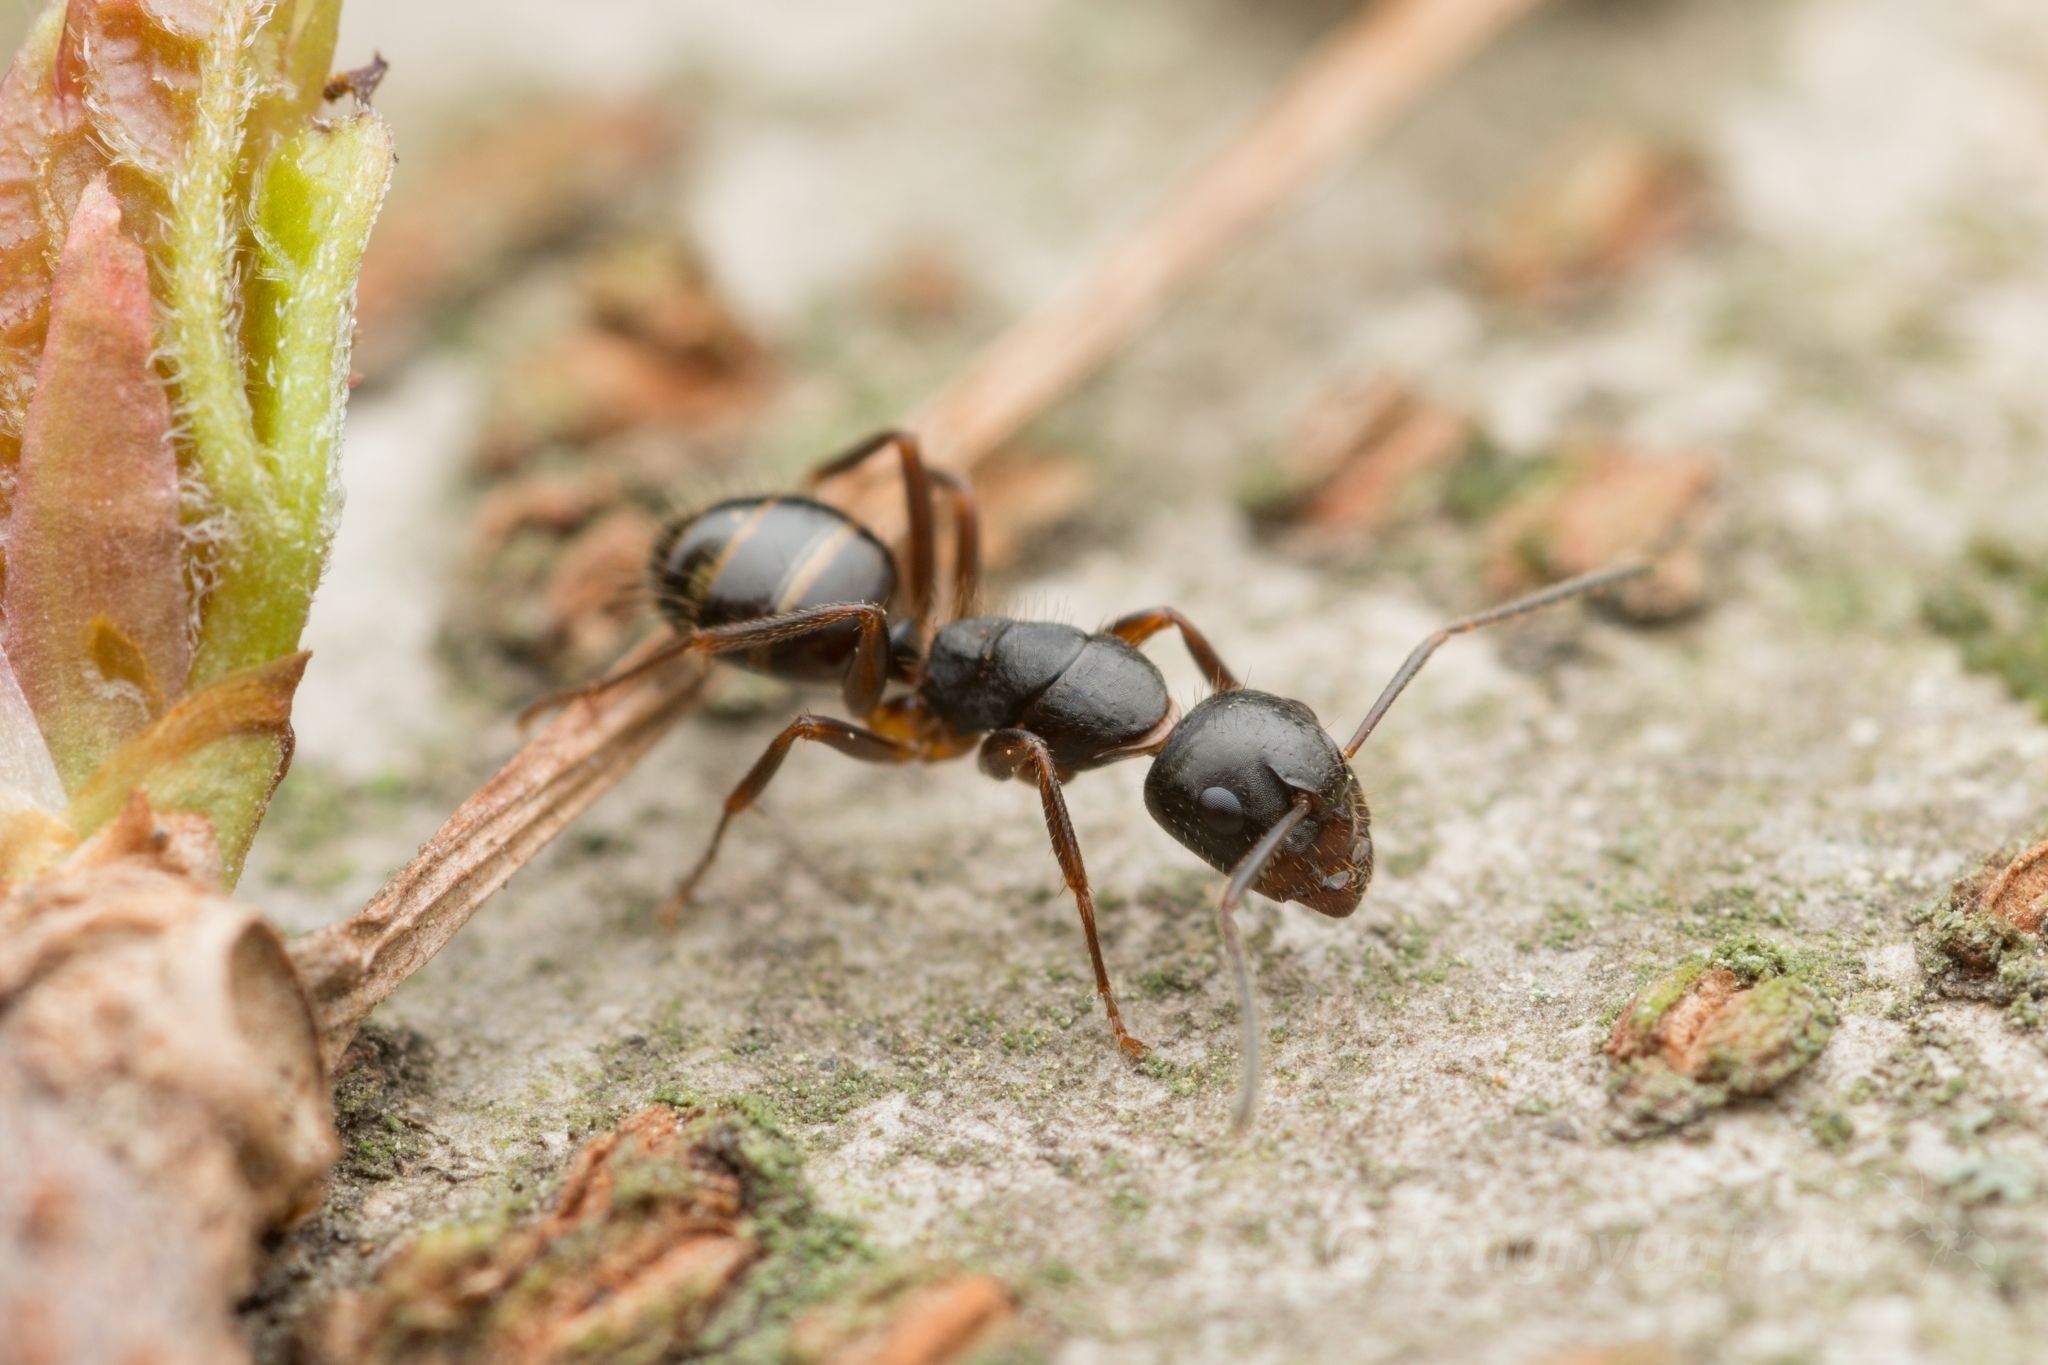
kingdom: Animalia
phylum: Arthropoda
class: Insecta
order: Hymenoptera
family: Formicidae
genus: Camponotus
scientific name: Camponotus nipponensis
